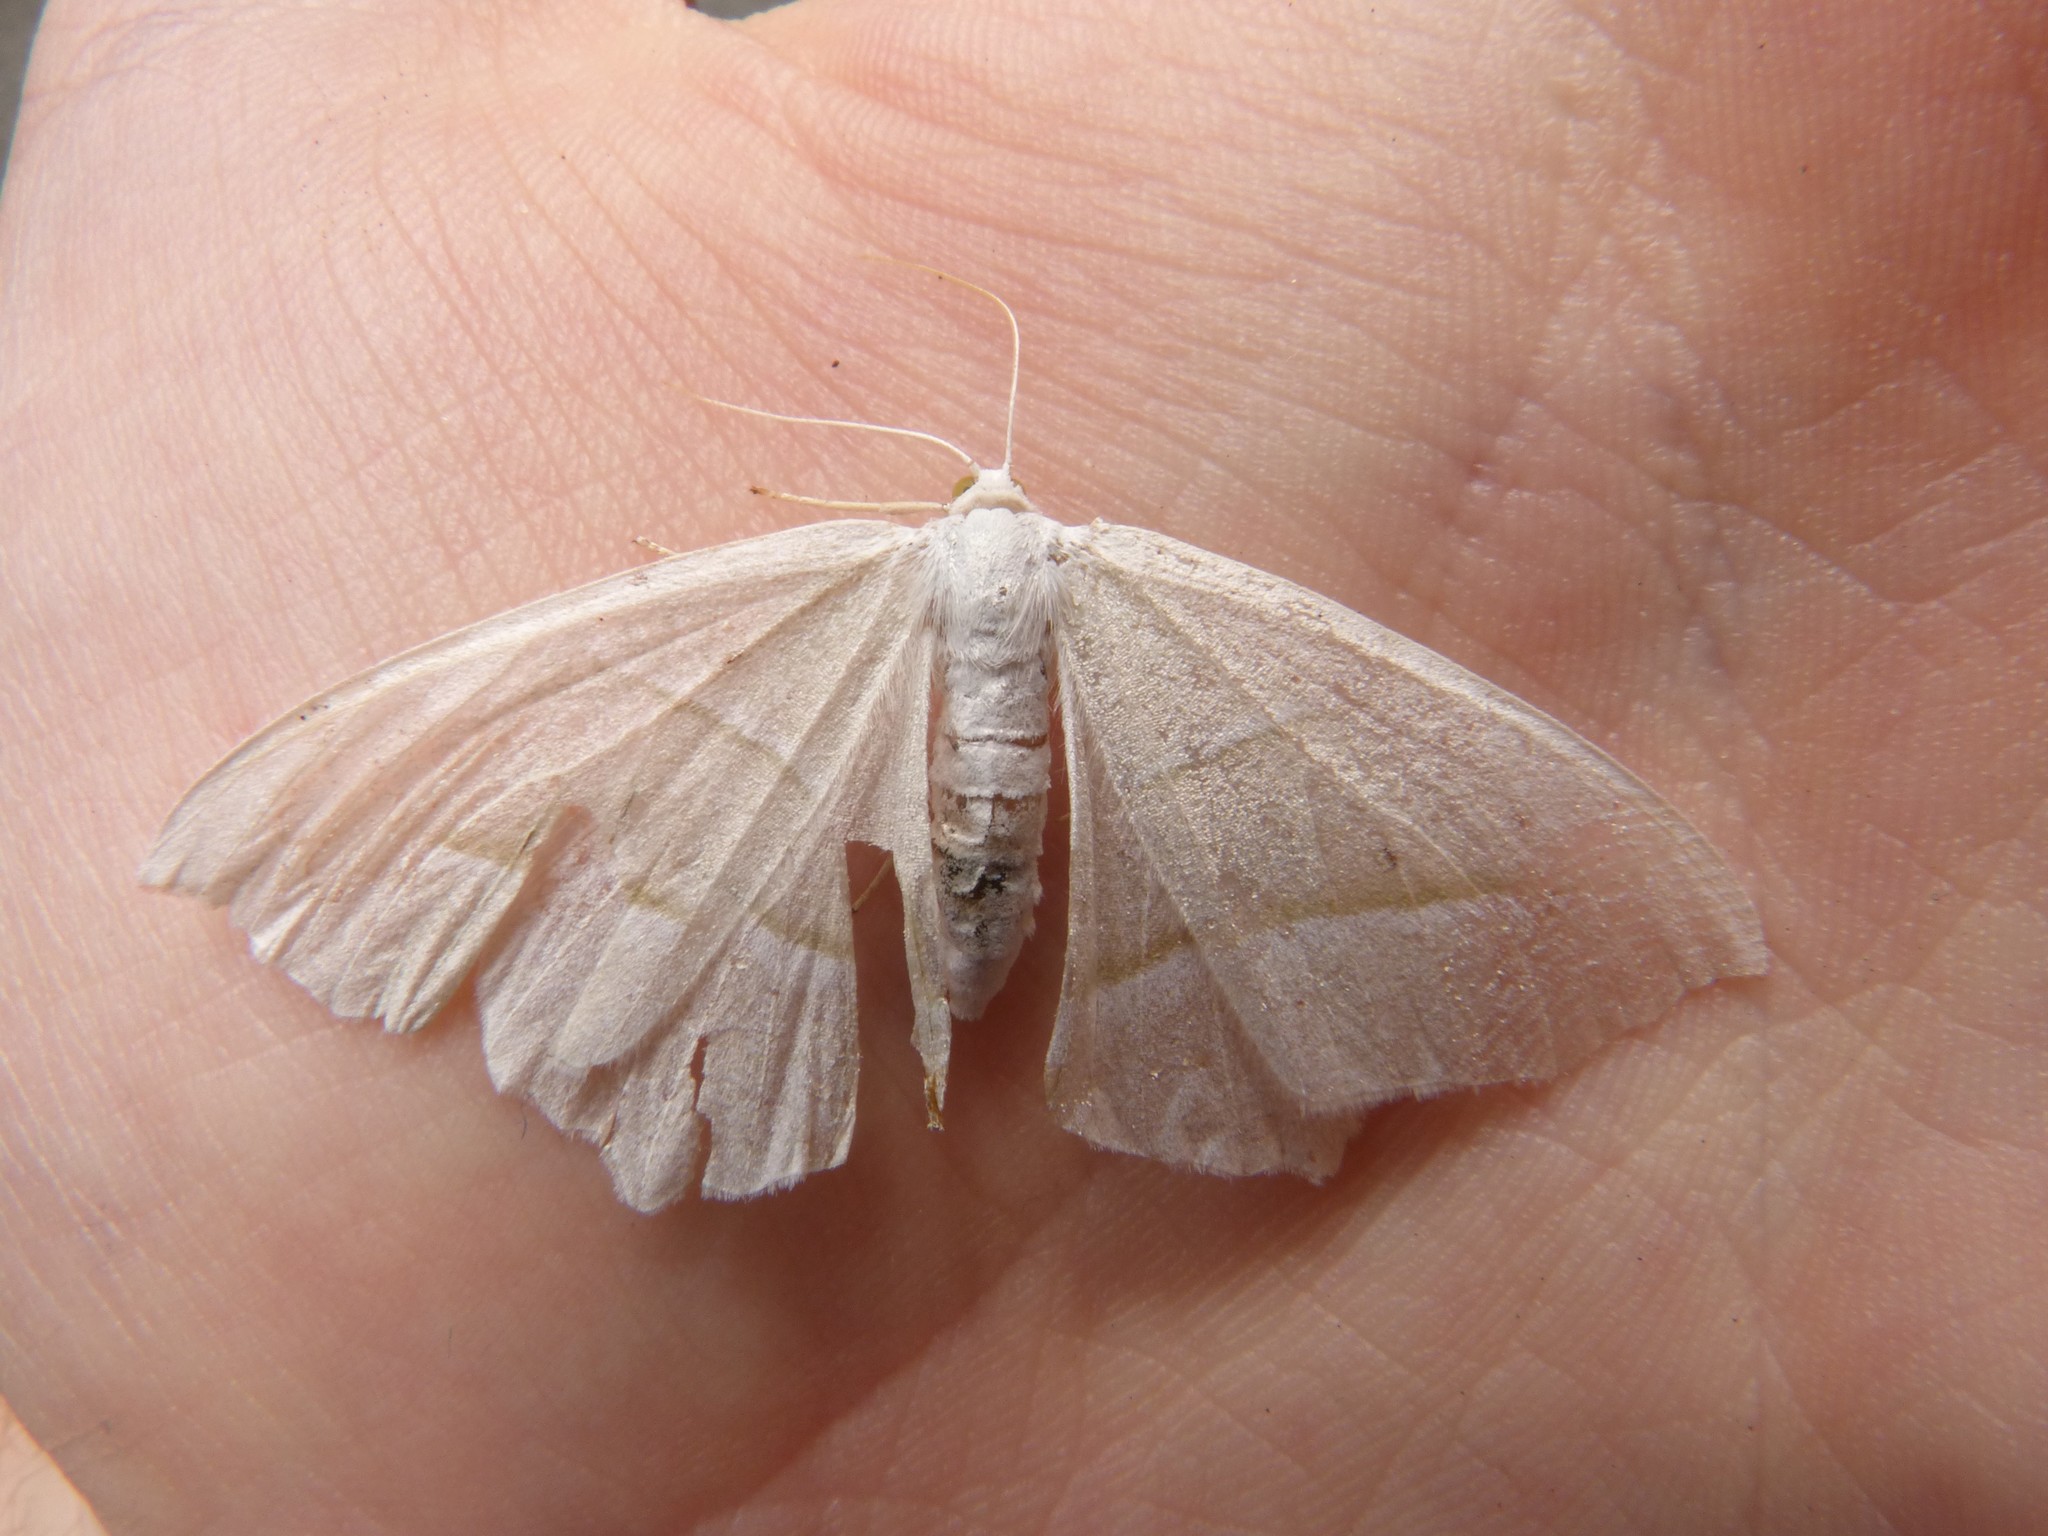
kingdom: Animalia
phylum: Arthropoda
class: Insecta
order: Lepidoptera
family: Geometridae
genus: Campaea
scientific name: Campaea margaritaria
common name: Light emerald
